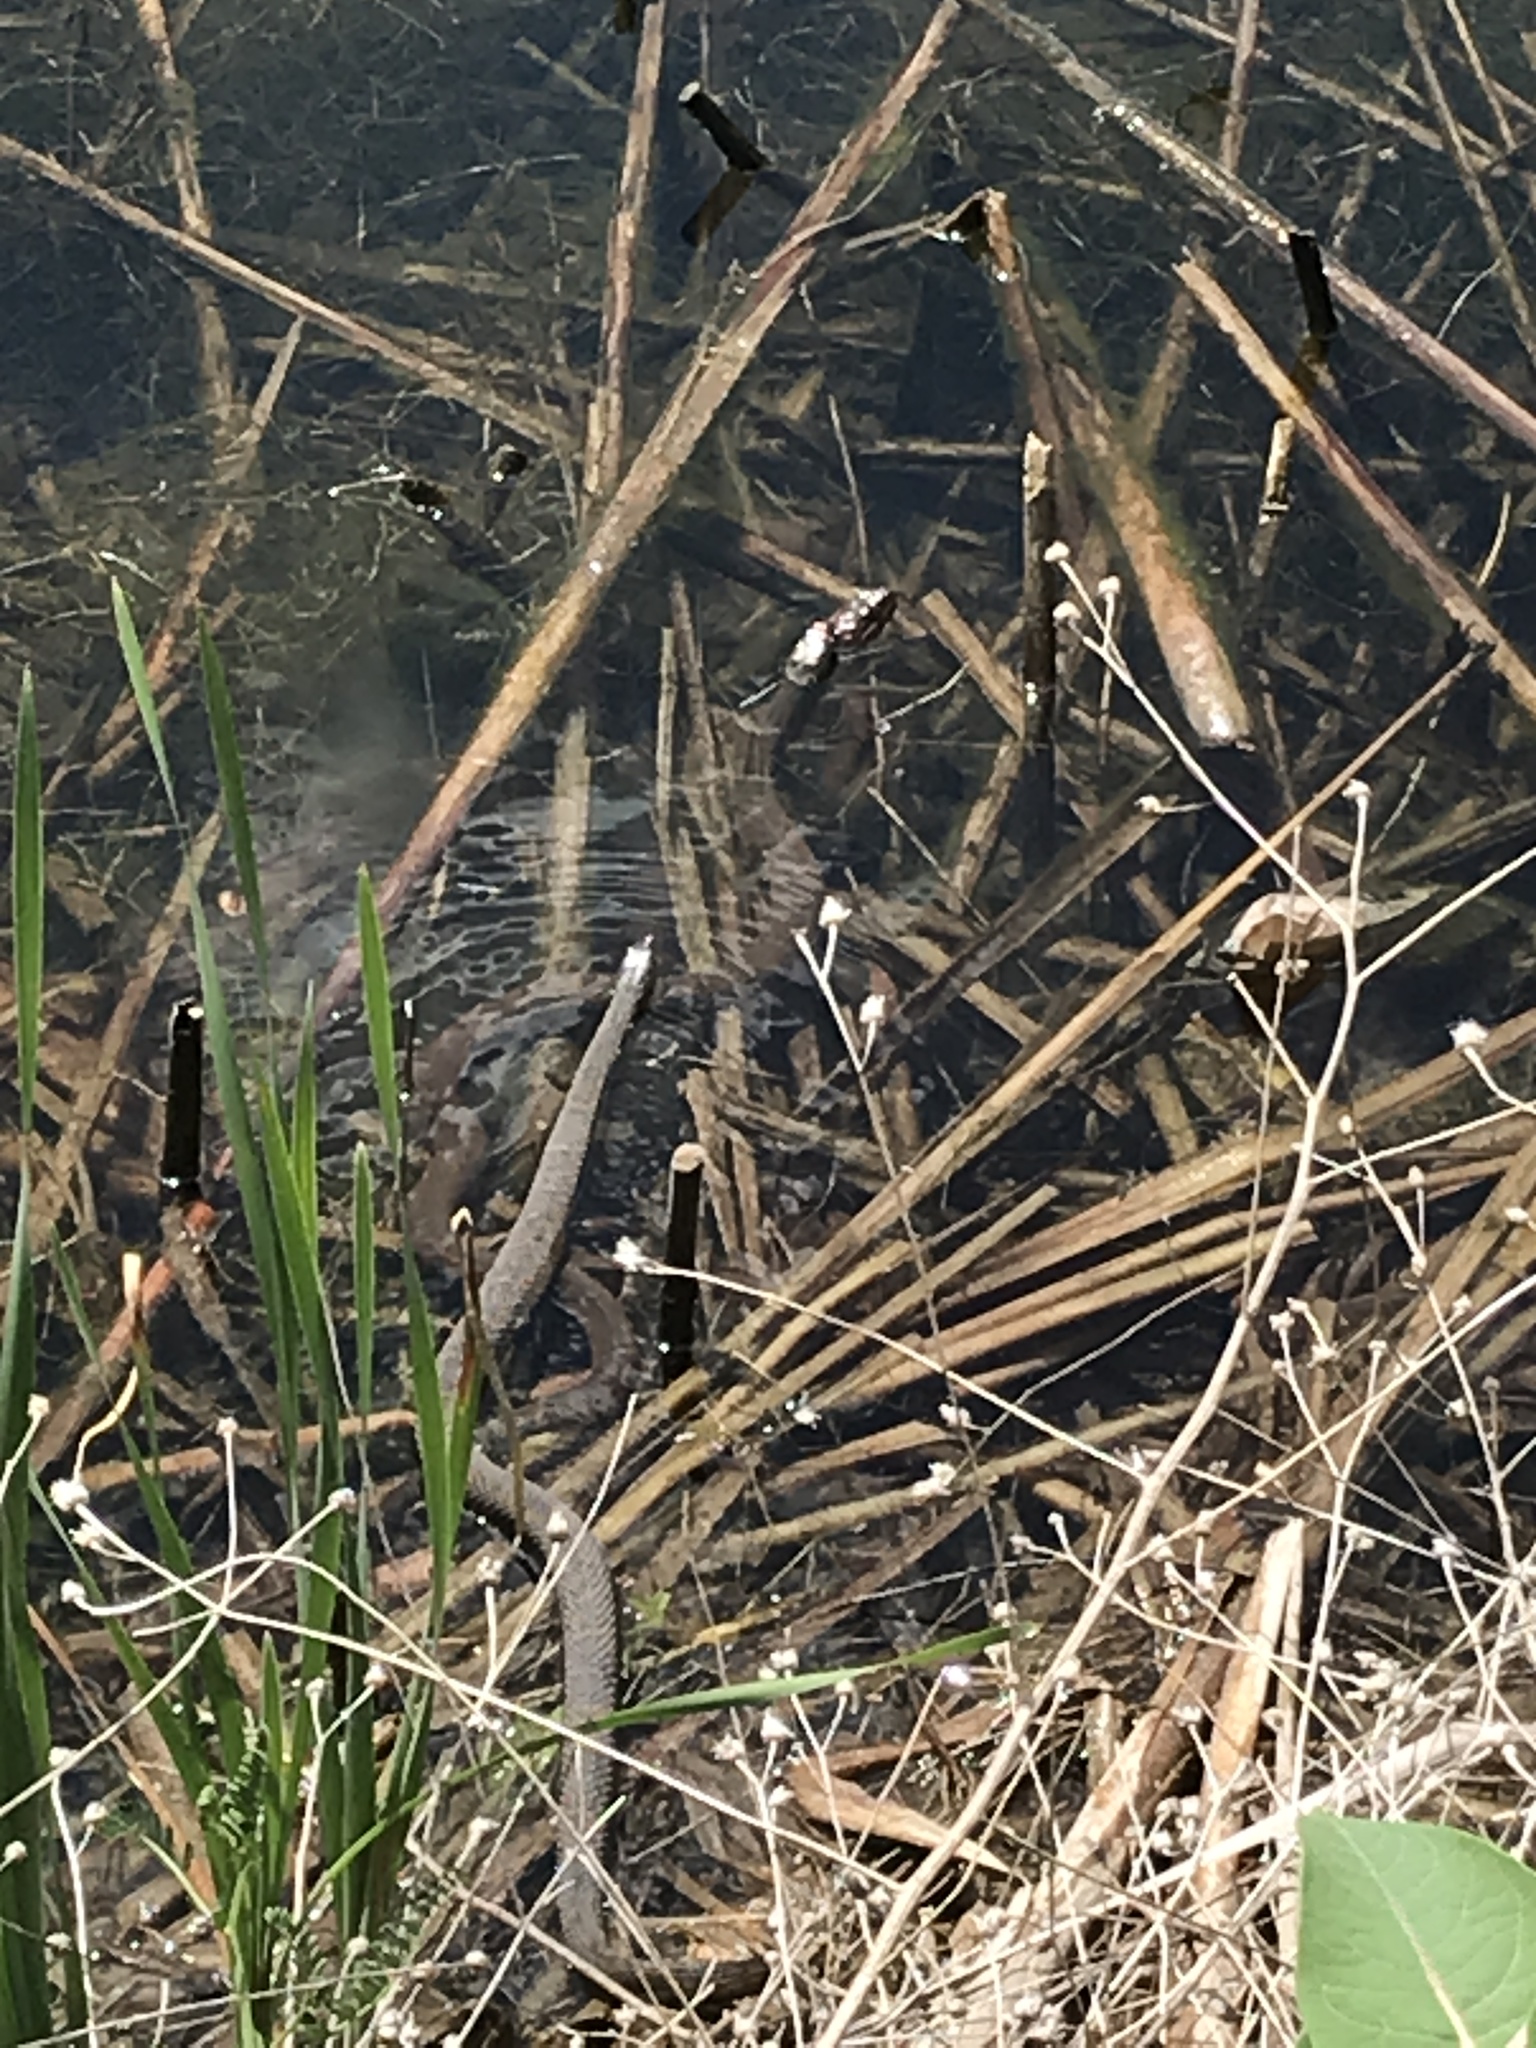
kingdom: Animalia
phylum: Chordata
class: Squamata
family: Colubridae
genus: Nerodia
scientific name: Nerodia sipedon
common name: Northern water snake
